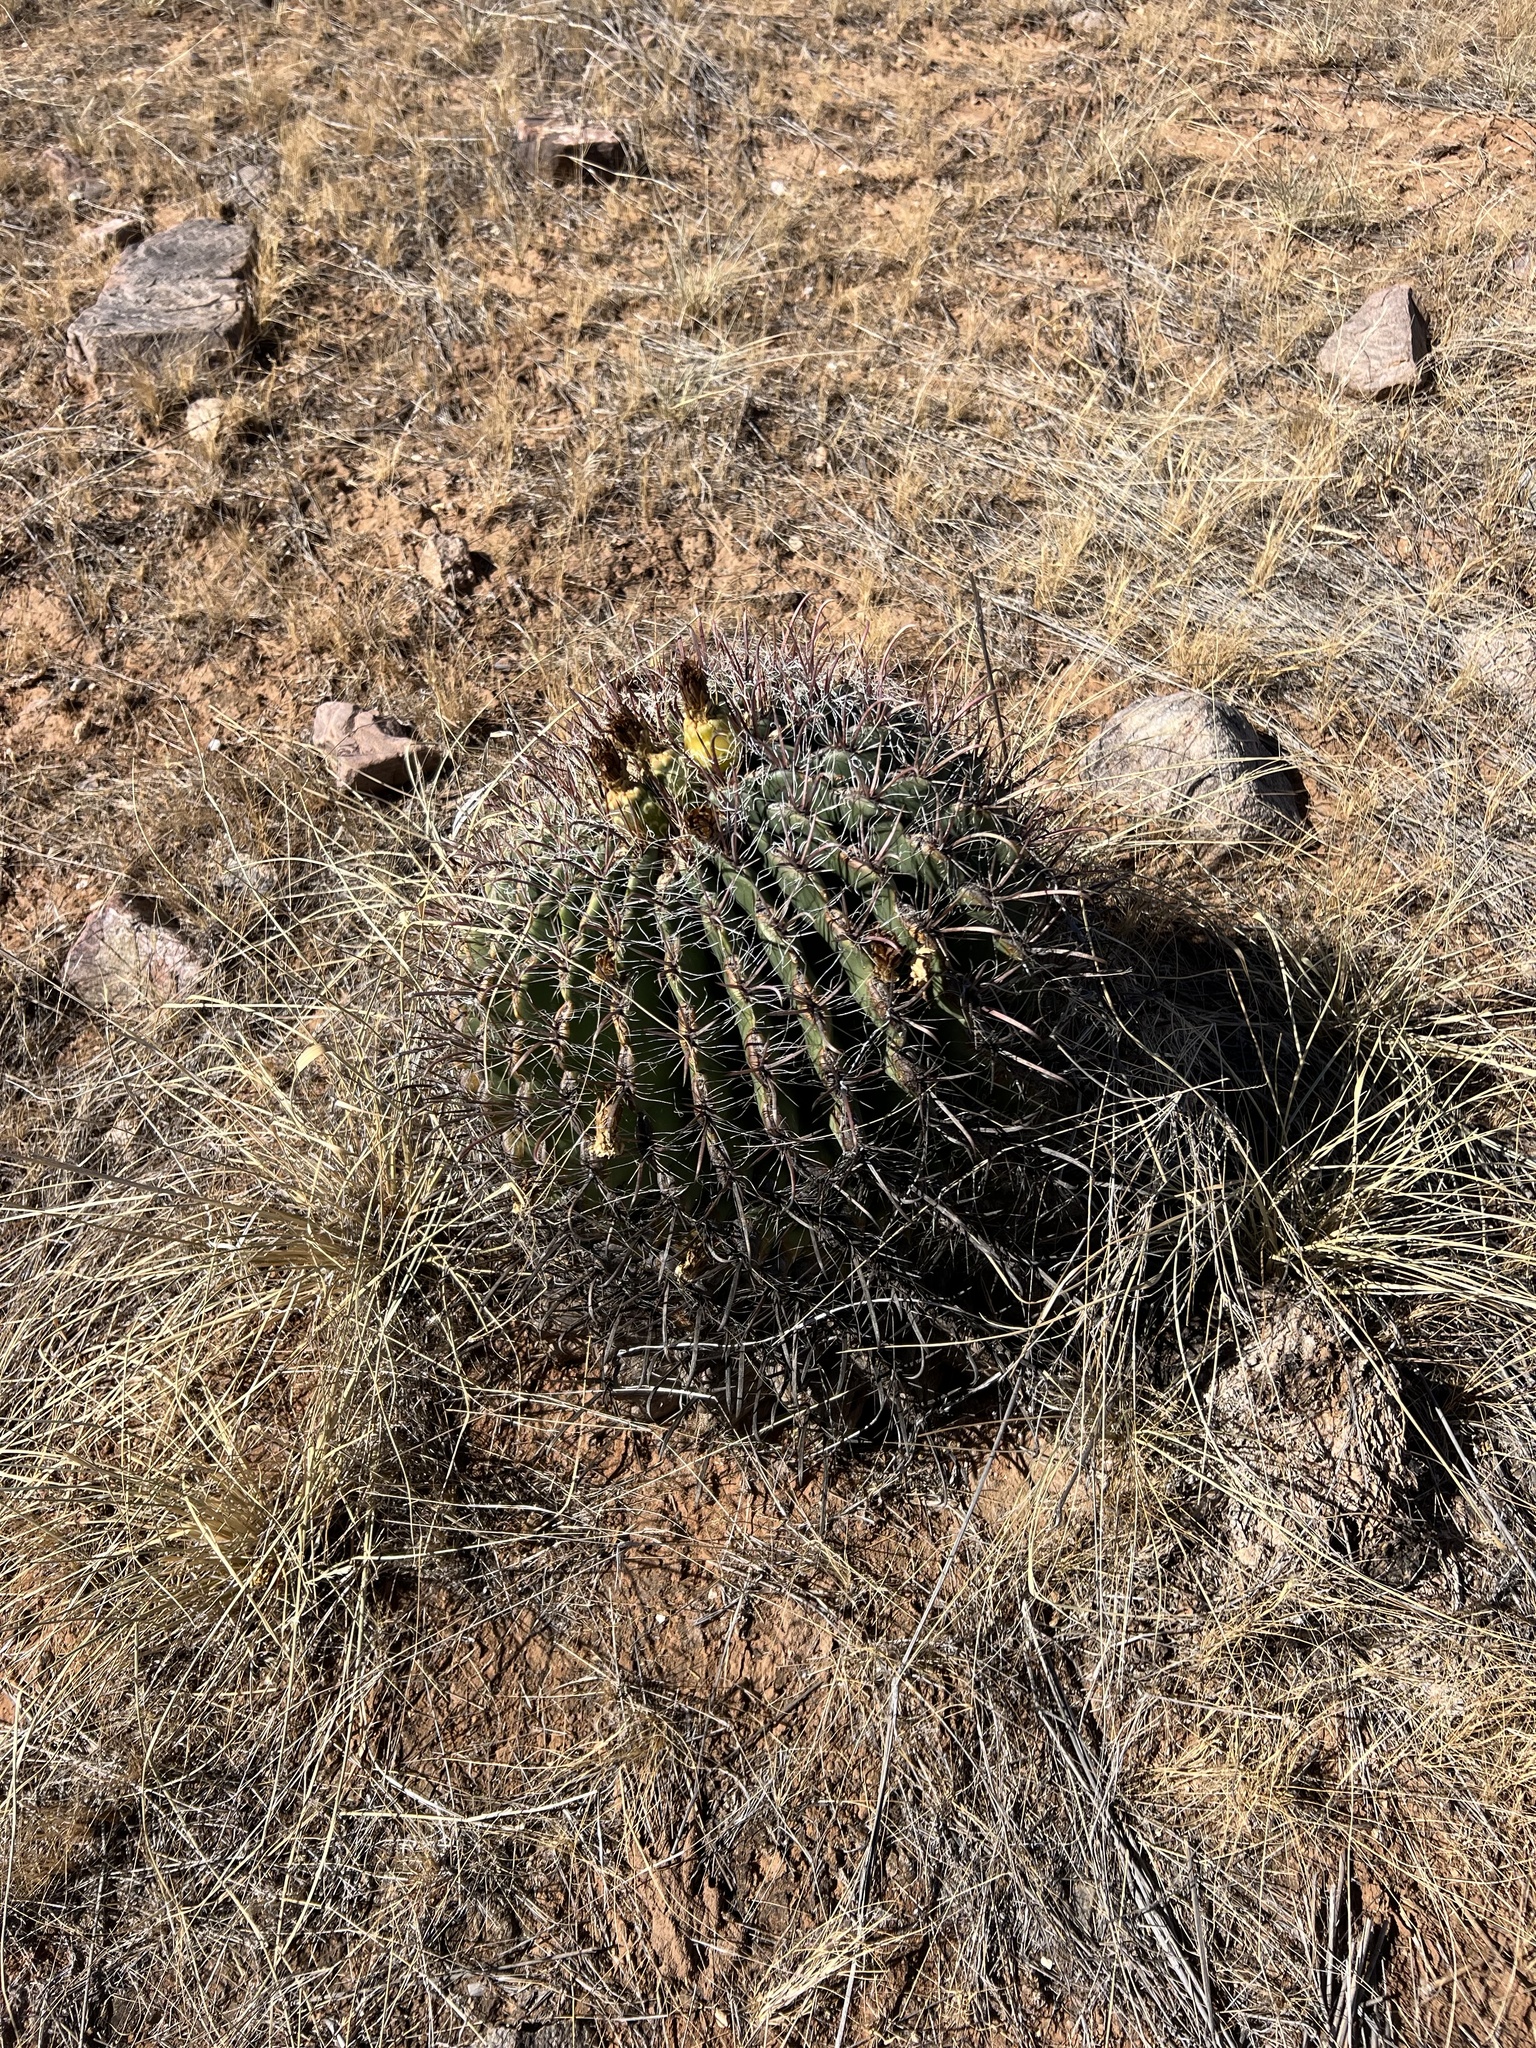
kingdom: Plantae
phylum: Tracheophyta
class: Magnoliopsida
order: Caryophyllales
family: Cactaceae
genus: Ferocactus
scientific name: Ferocactus wislizeni
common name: Candy barrel cactus
